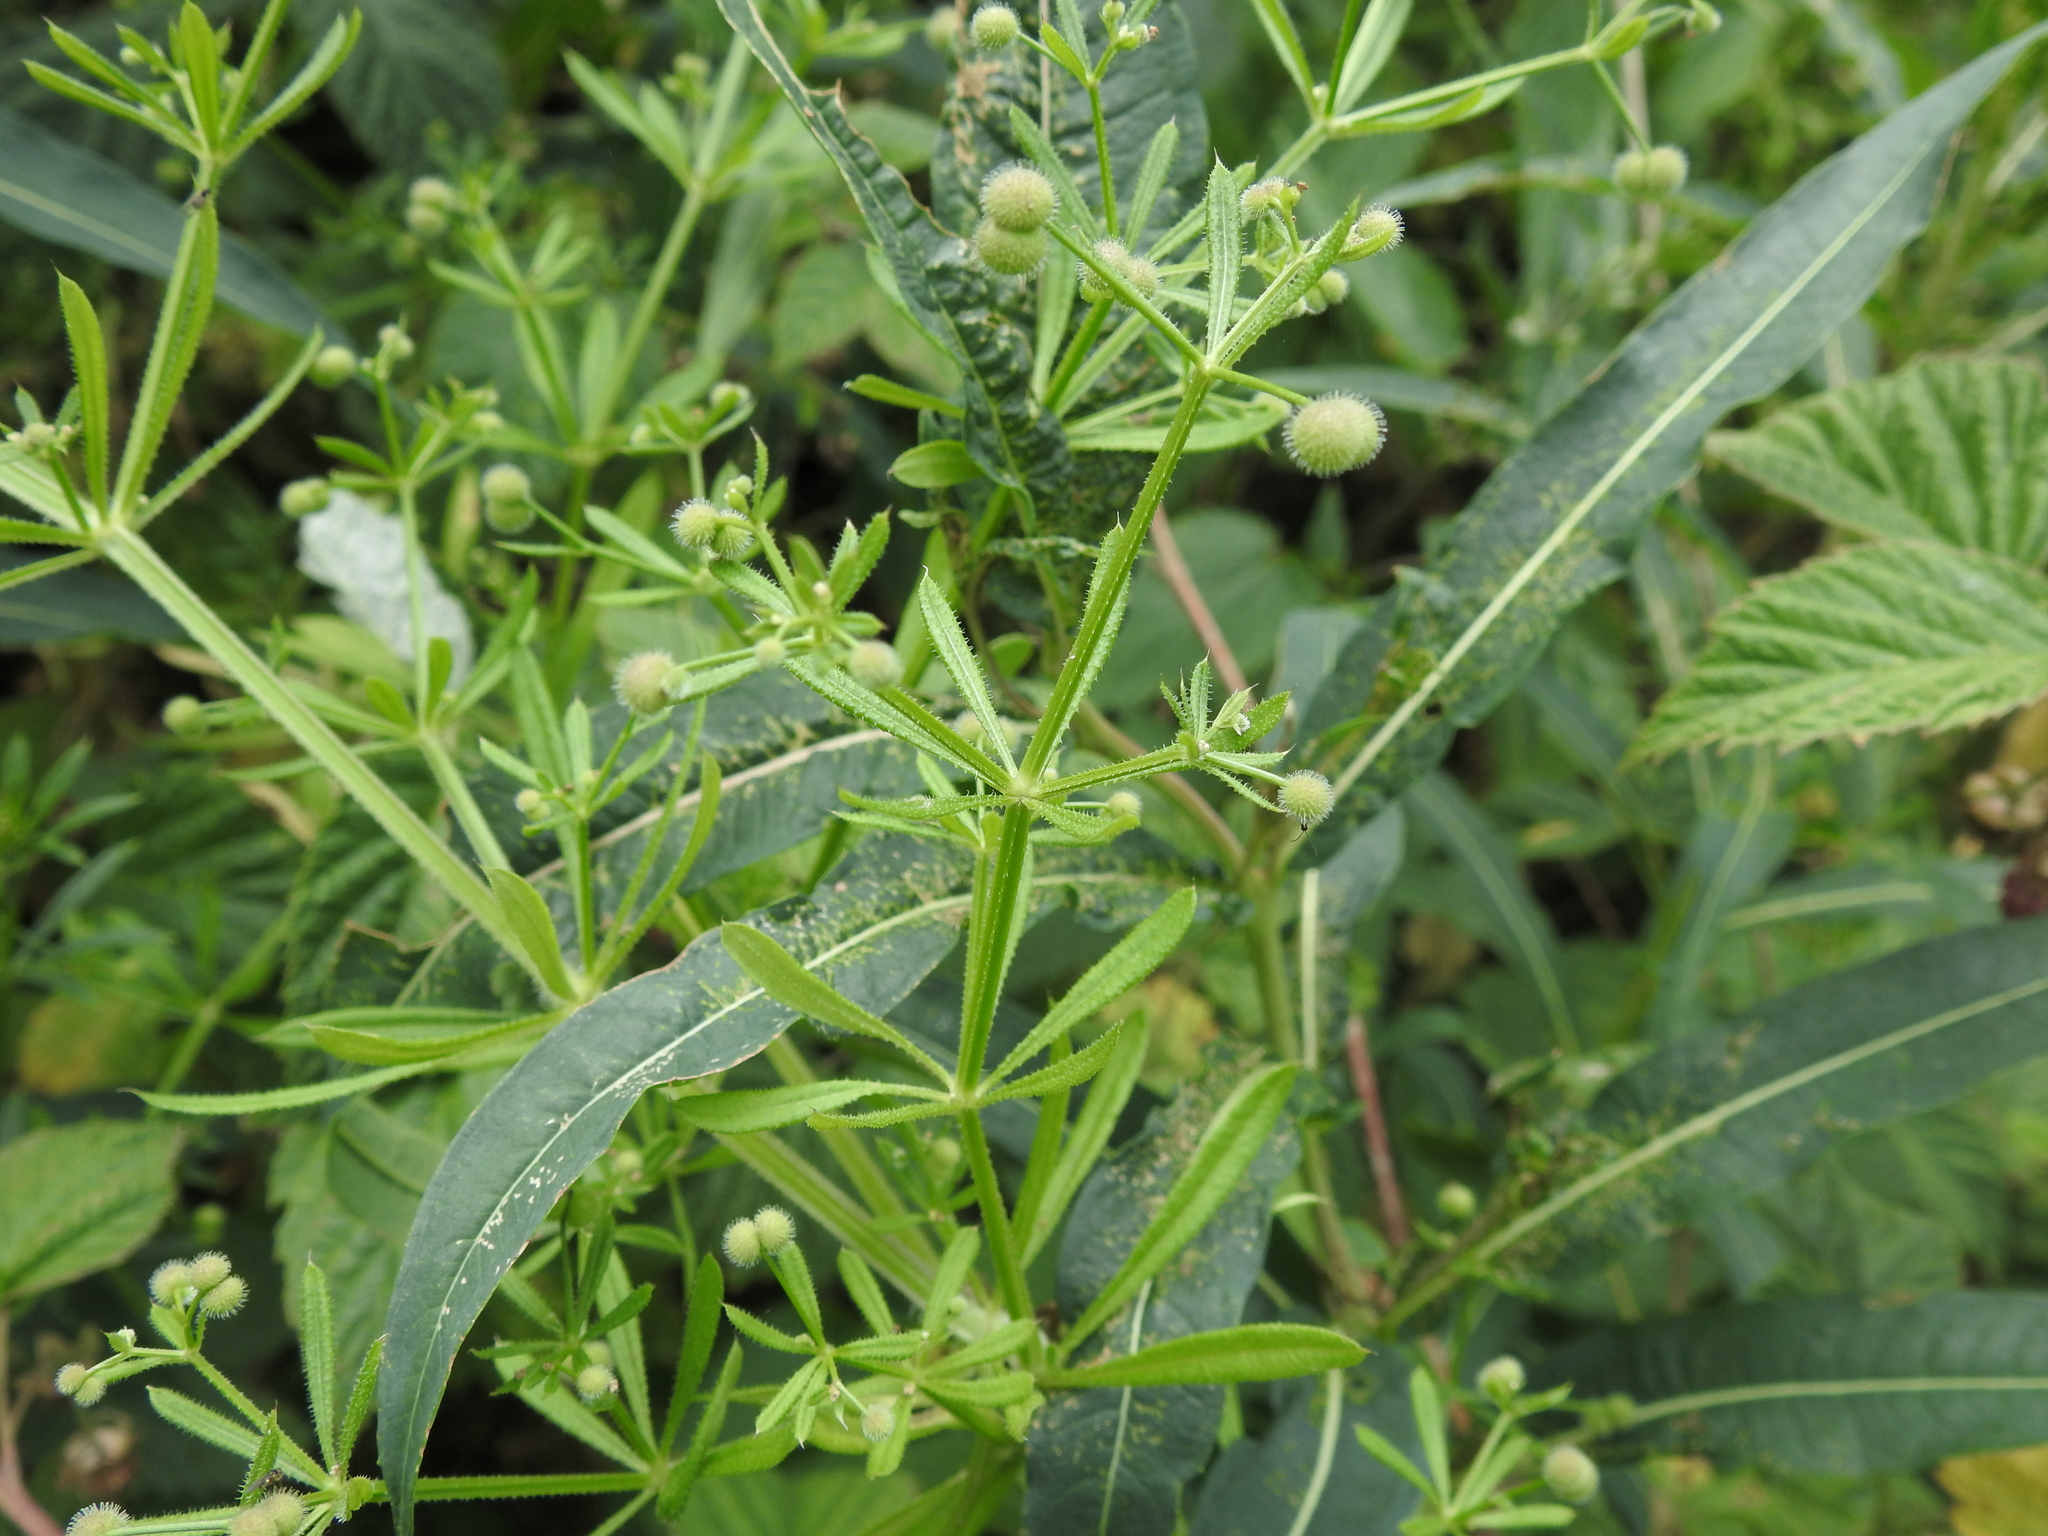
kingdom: Plantae
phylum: Tracheophyta
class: Magnoliopsida
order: Gentianales
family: Rubiaceae
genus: Galium
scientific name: Galium aparine
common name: Cleavers
